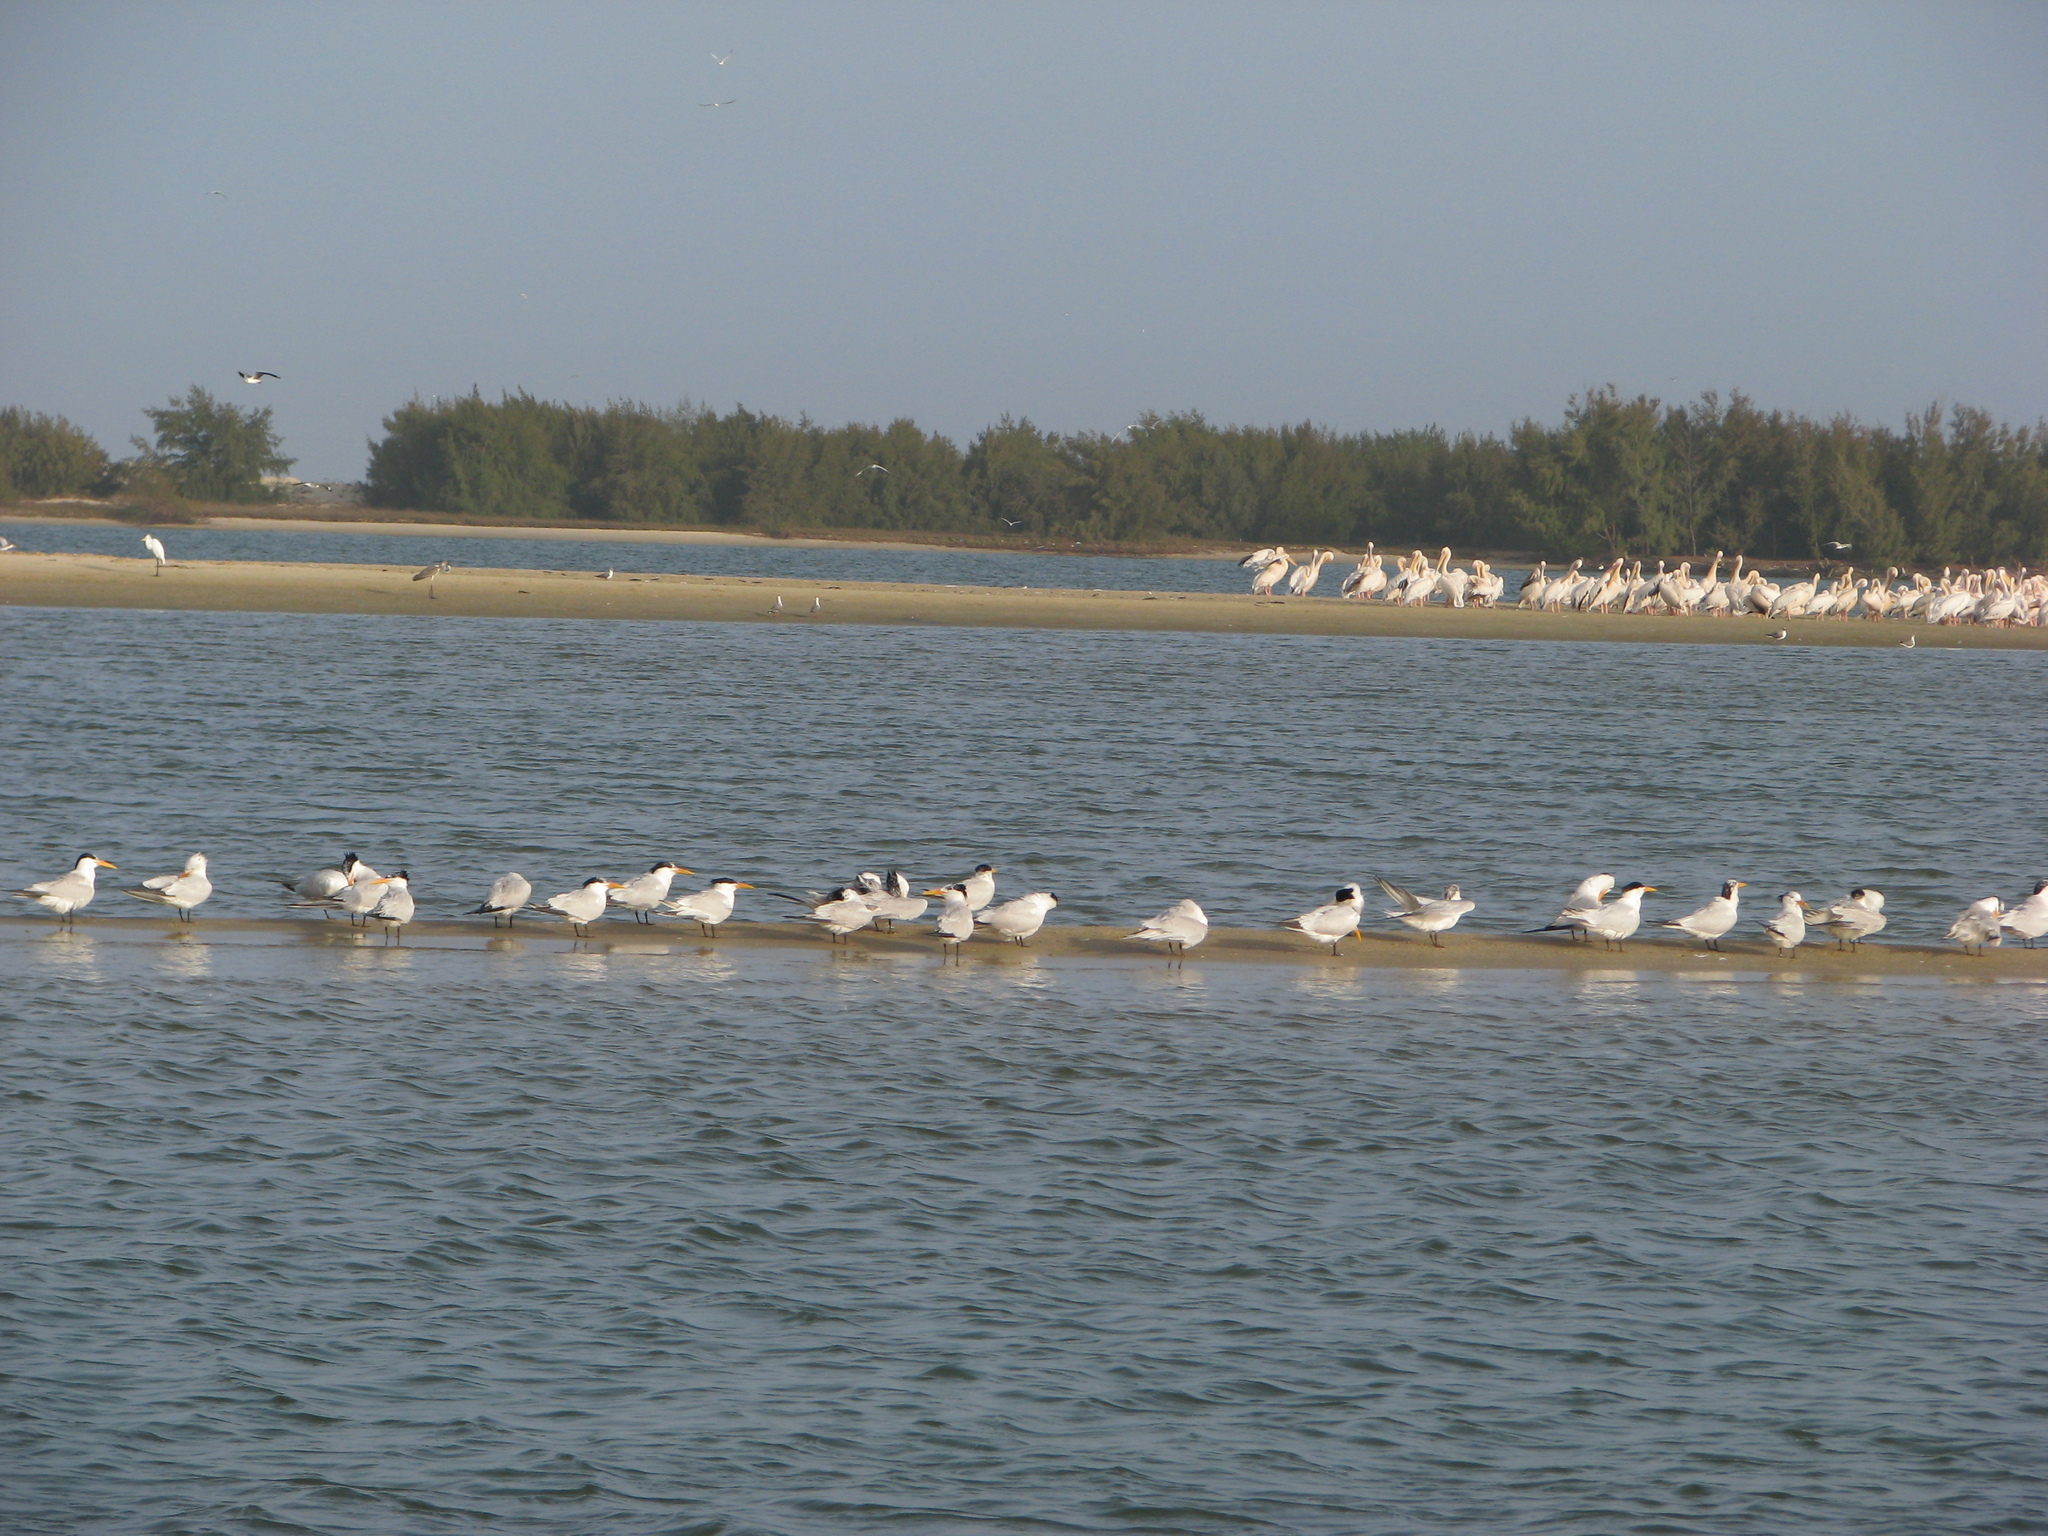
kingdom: Animalia
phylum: Chordata
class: Aves
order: Charadriiformes
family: Laridae
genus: Thalasseus
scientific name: Thalasseus albididorsalis
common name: West african crested tern
